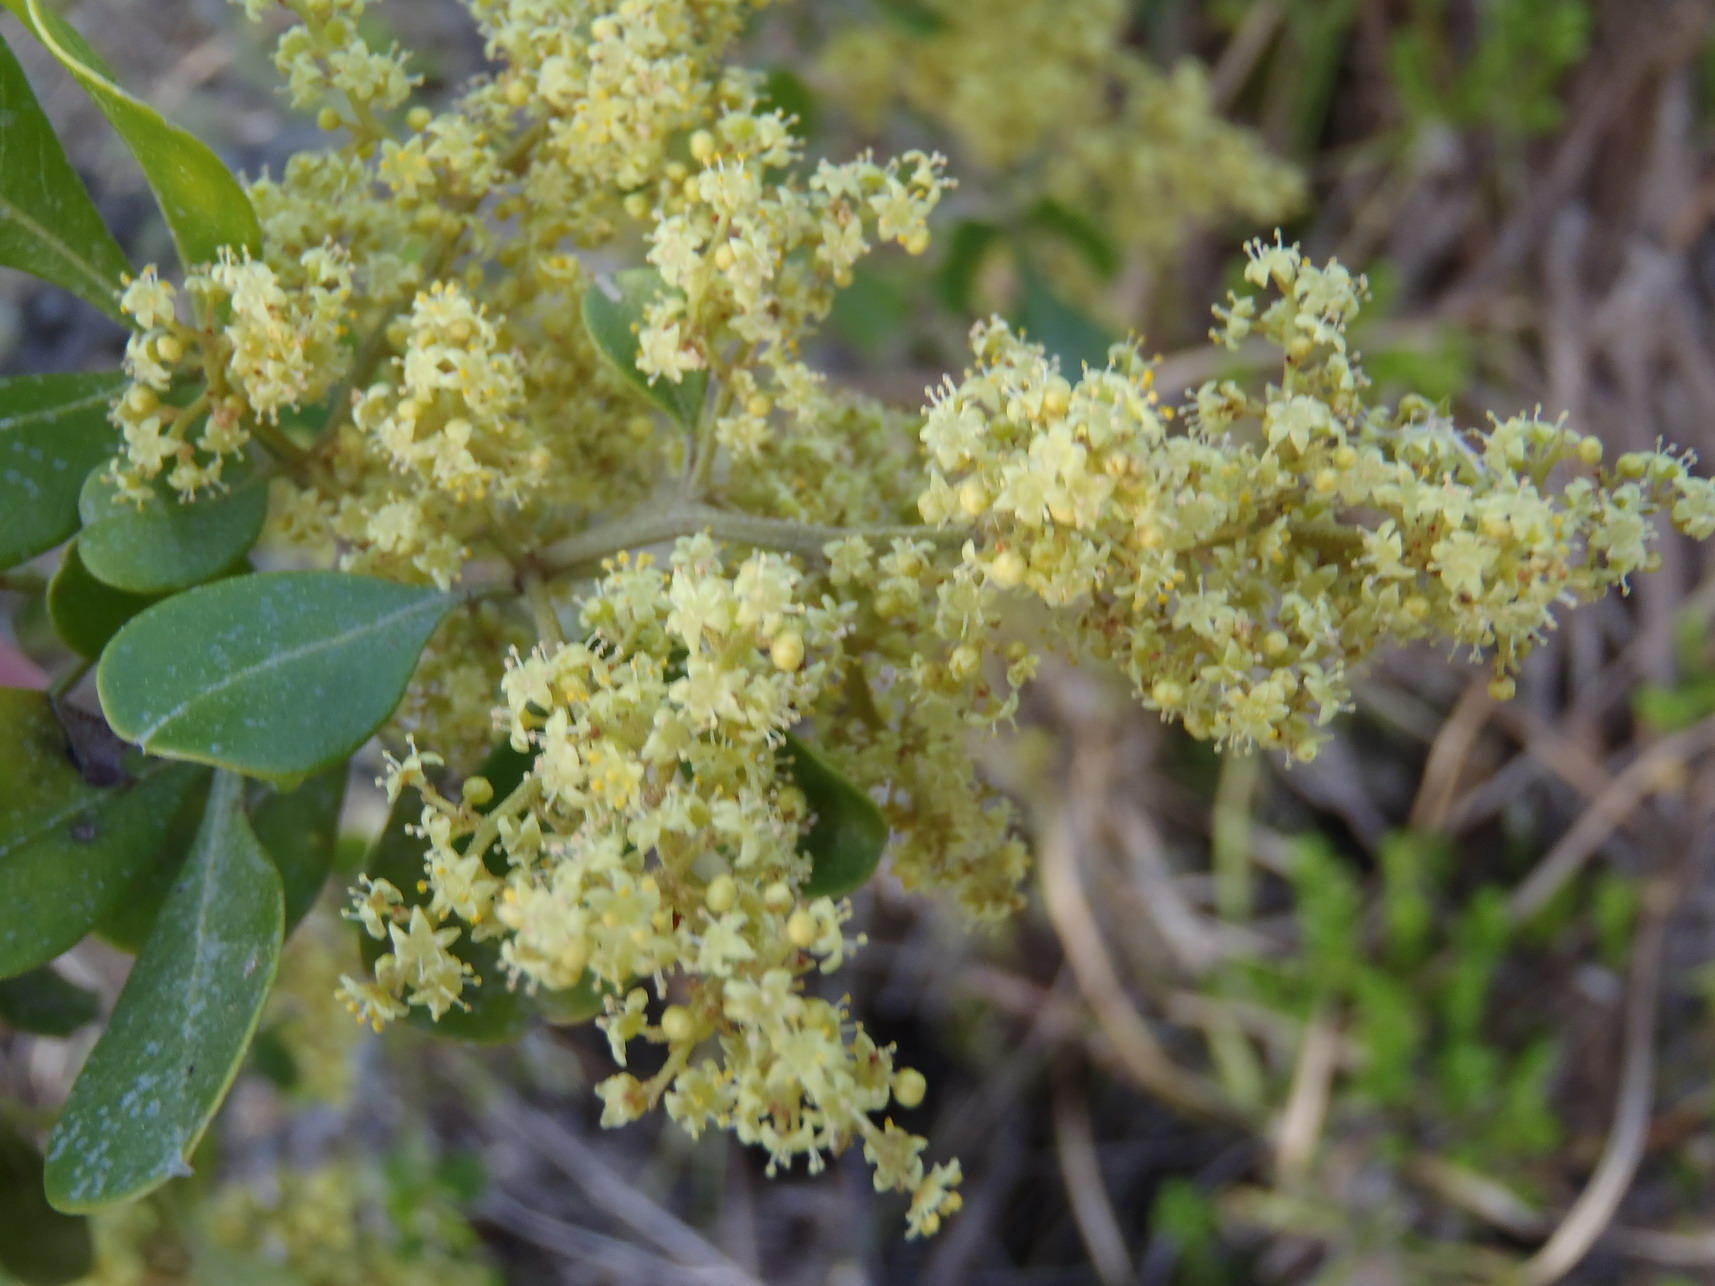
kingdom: Plantae
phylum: Tracheophyta
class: Magnoliopsida
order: Sapindales
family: Anacardiaceae
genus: Searsia
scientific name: Searsia lucida
